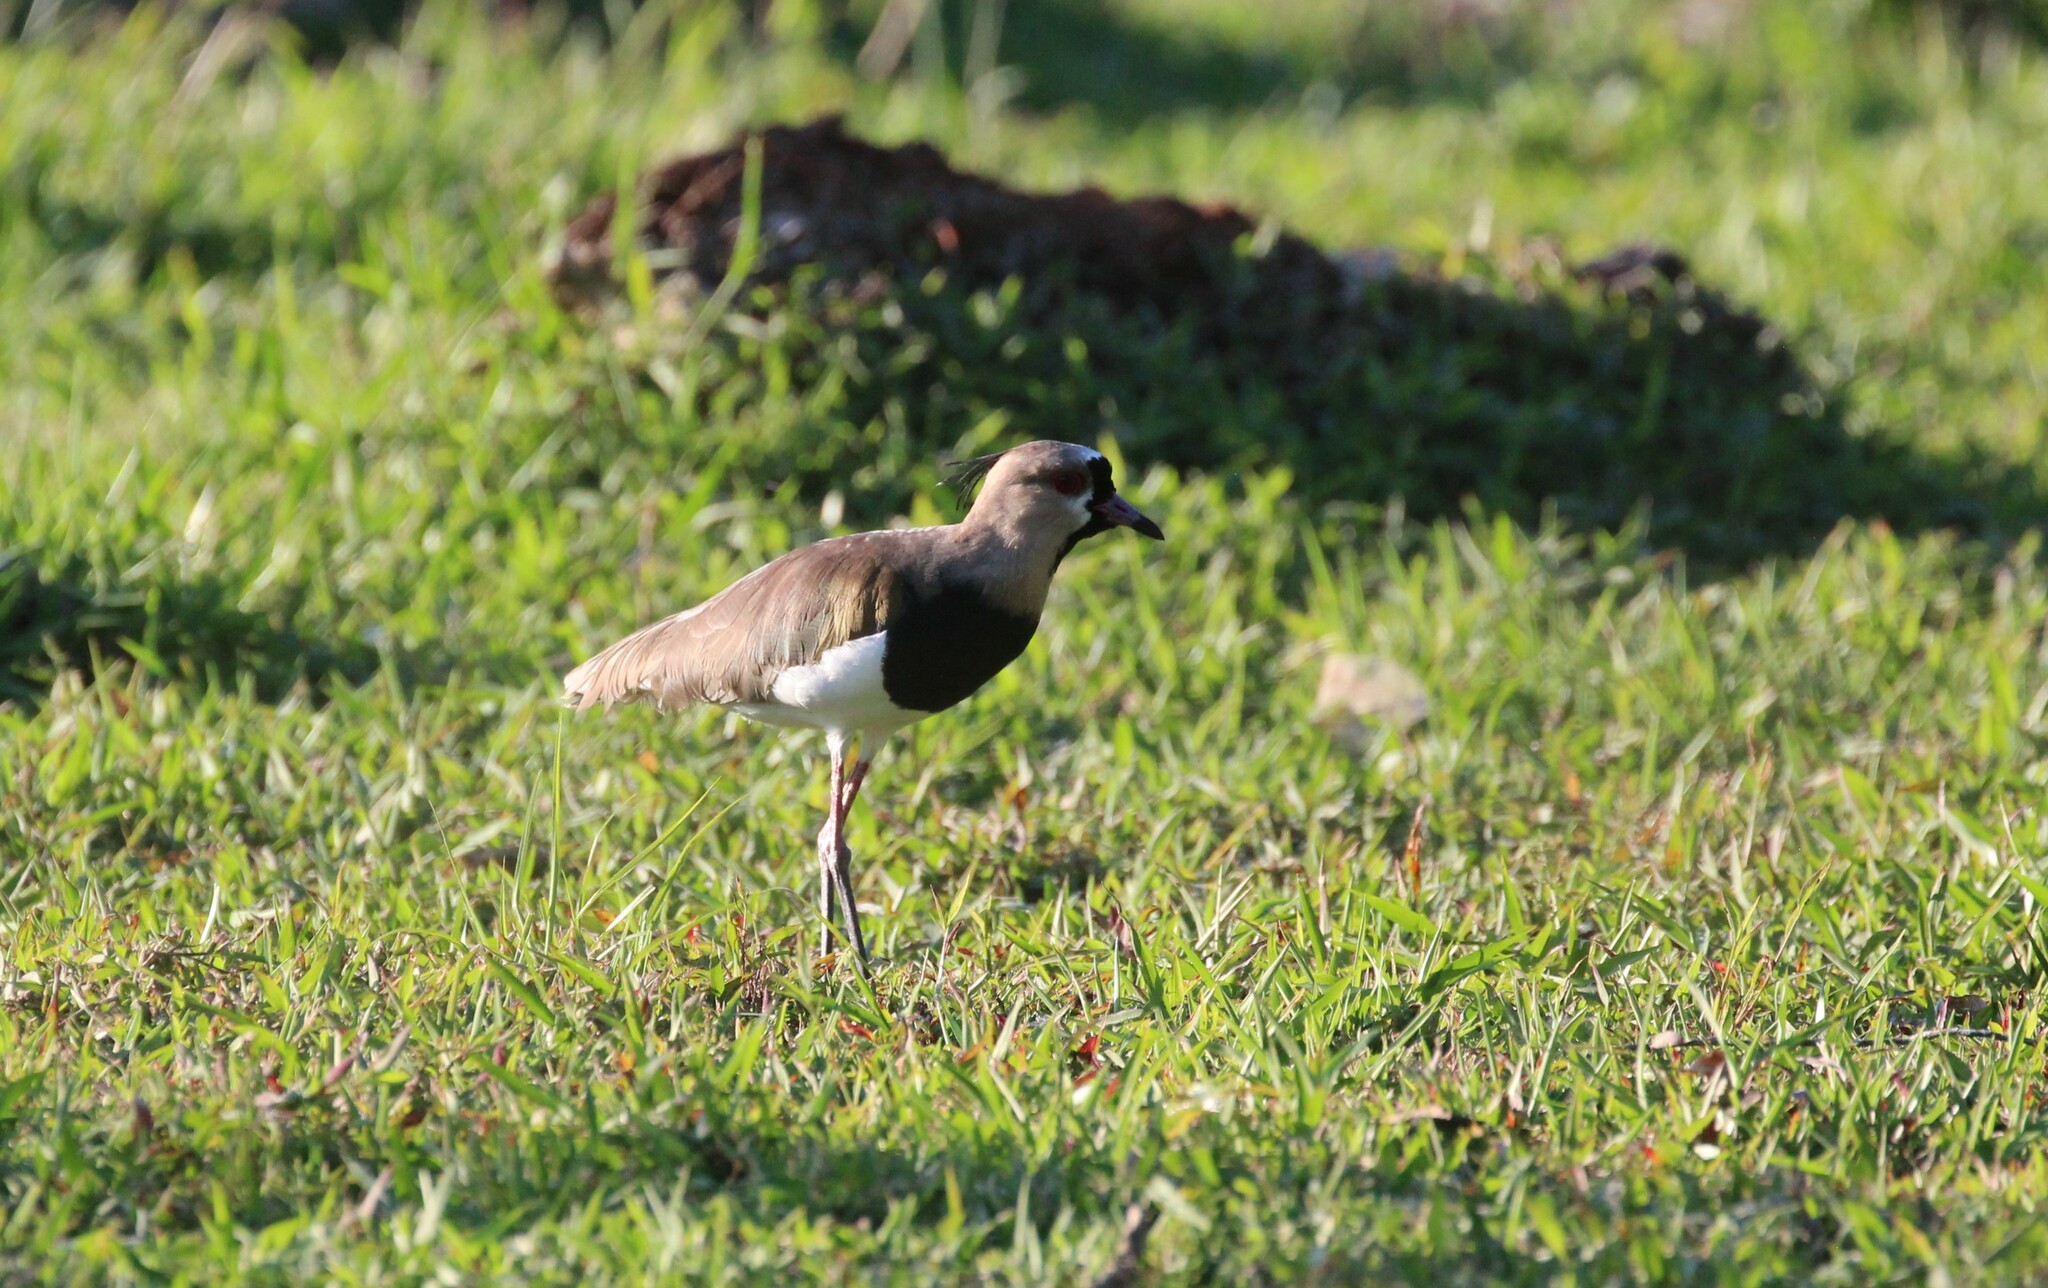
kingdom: Animalia
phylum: Chordata
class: Aves
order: Charadriiformes
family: Charadriidae
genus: Vanellus
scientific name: Vanellus chilensis
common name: Southern lapwing
